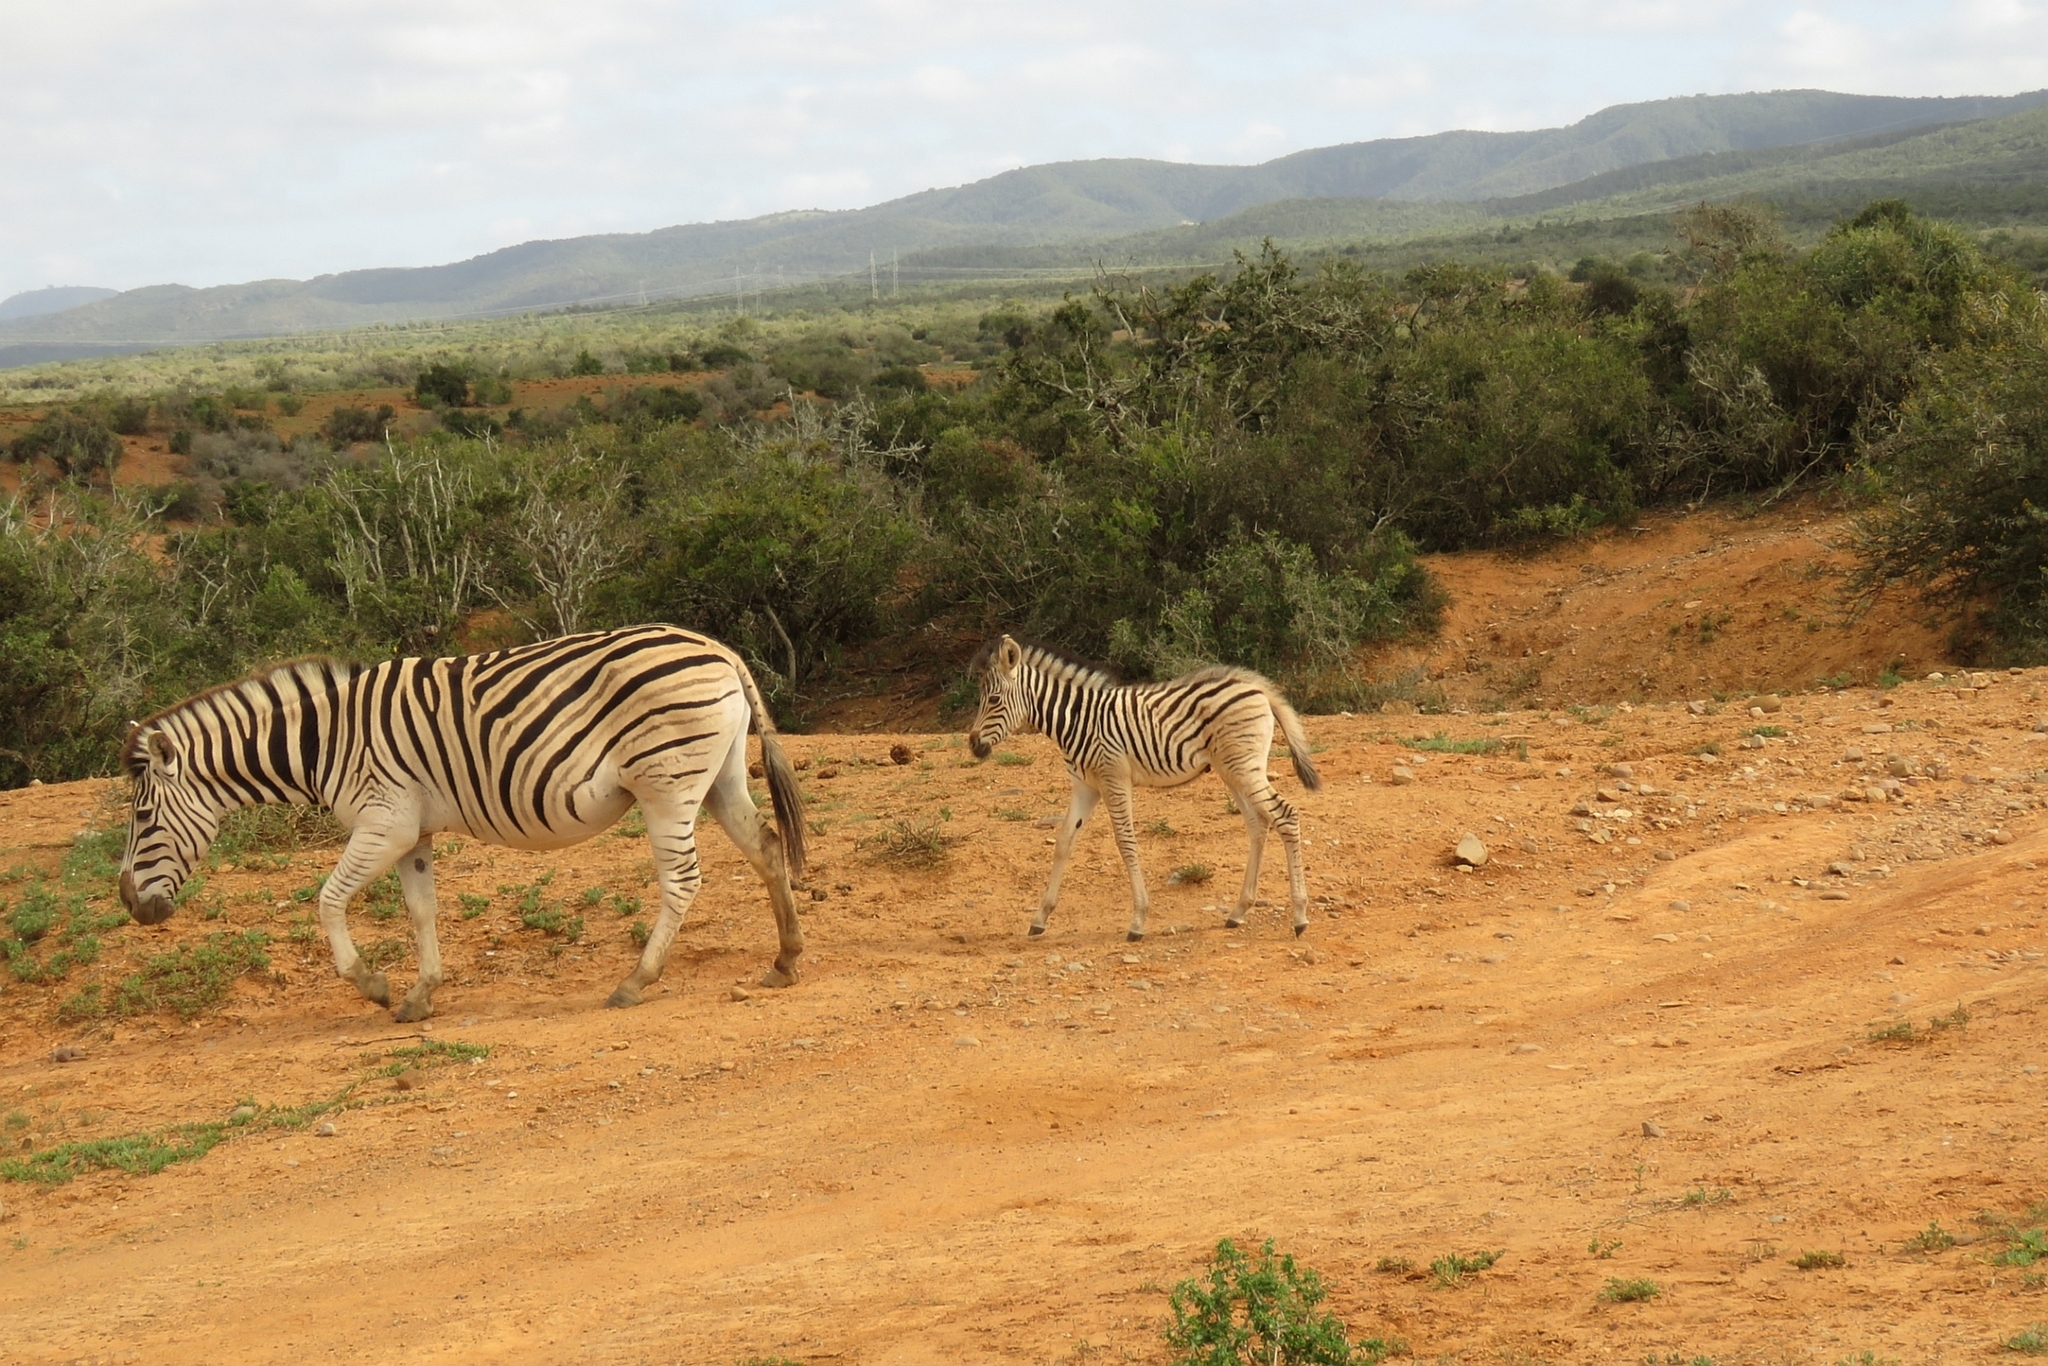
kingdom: Animalia
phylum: Chordata
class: Mammalia
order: Perissodactyla
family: Equidae
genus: Equus
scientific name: Equus quagga
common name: Plains zebra
